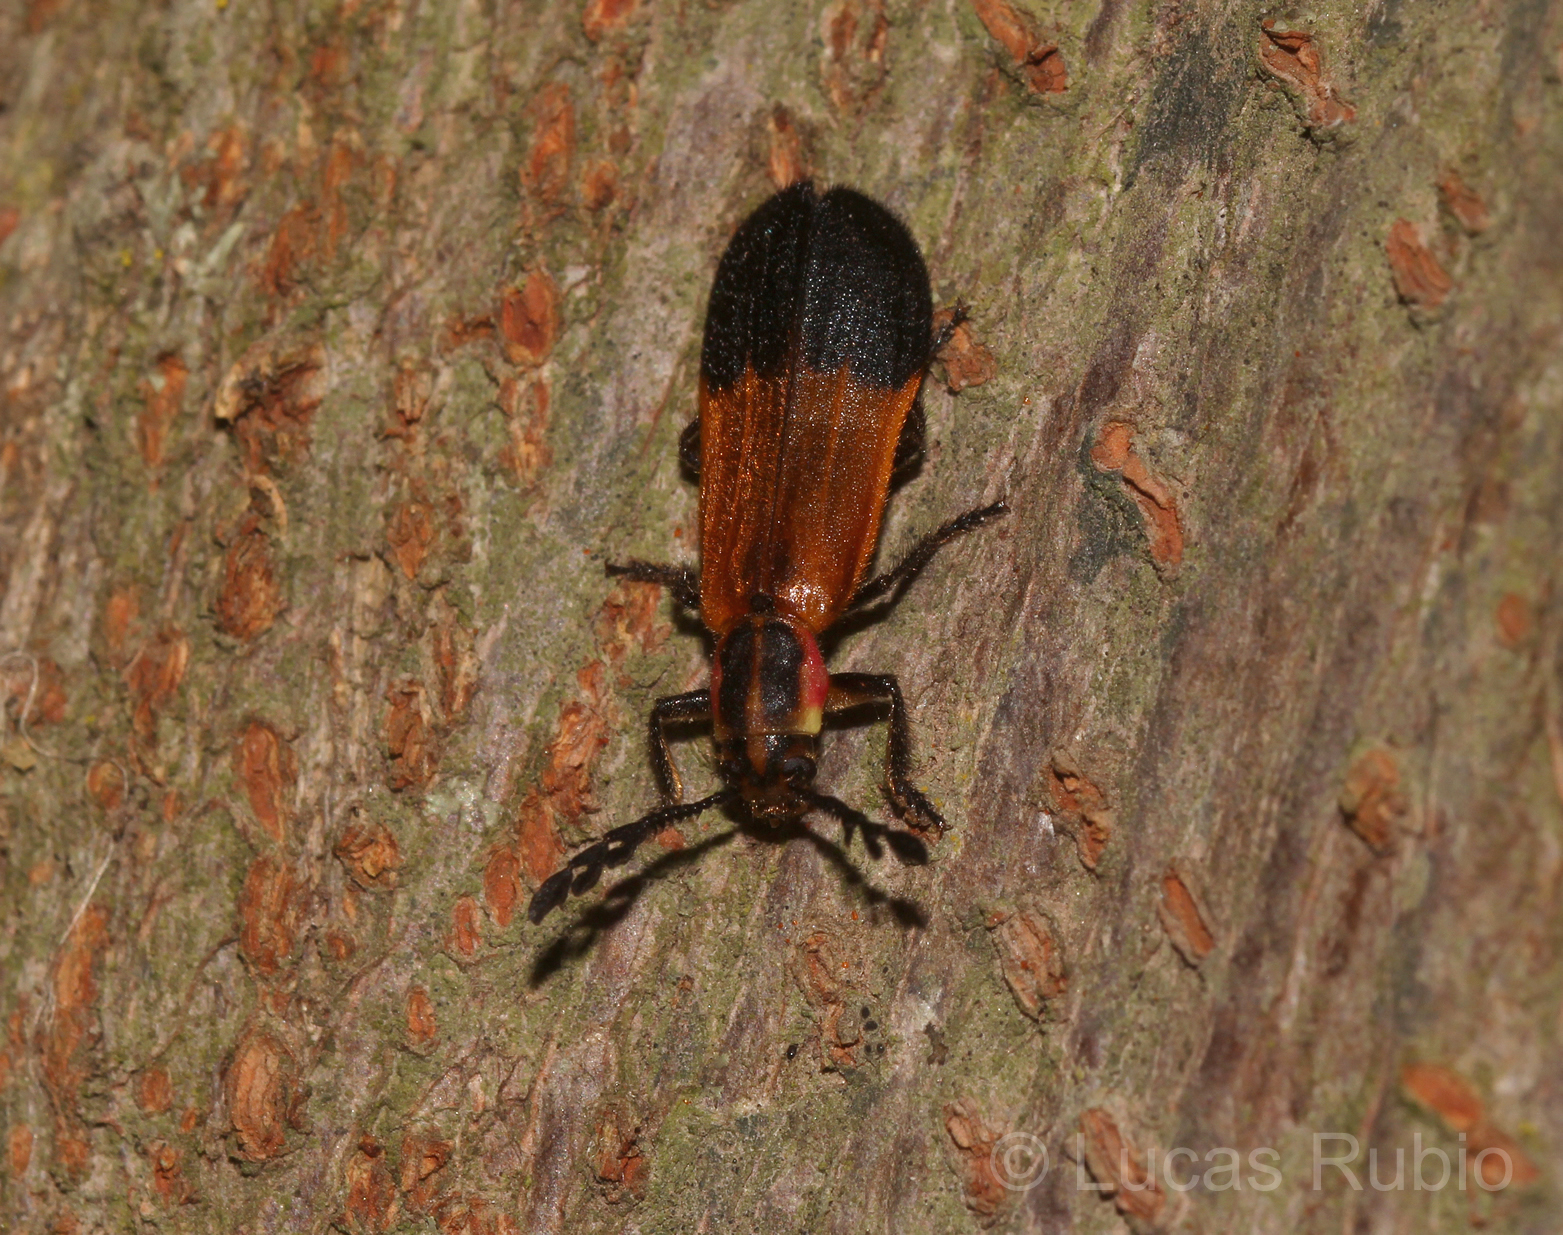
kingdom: Animalia
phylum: Arthropoda
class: Insecta
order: Coleoptera
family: Cleridae
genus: Chariessa
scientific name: Chariessa Tarandocerus lycoides
